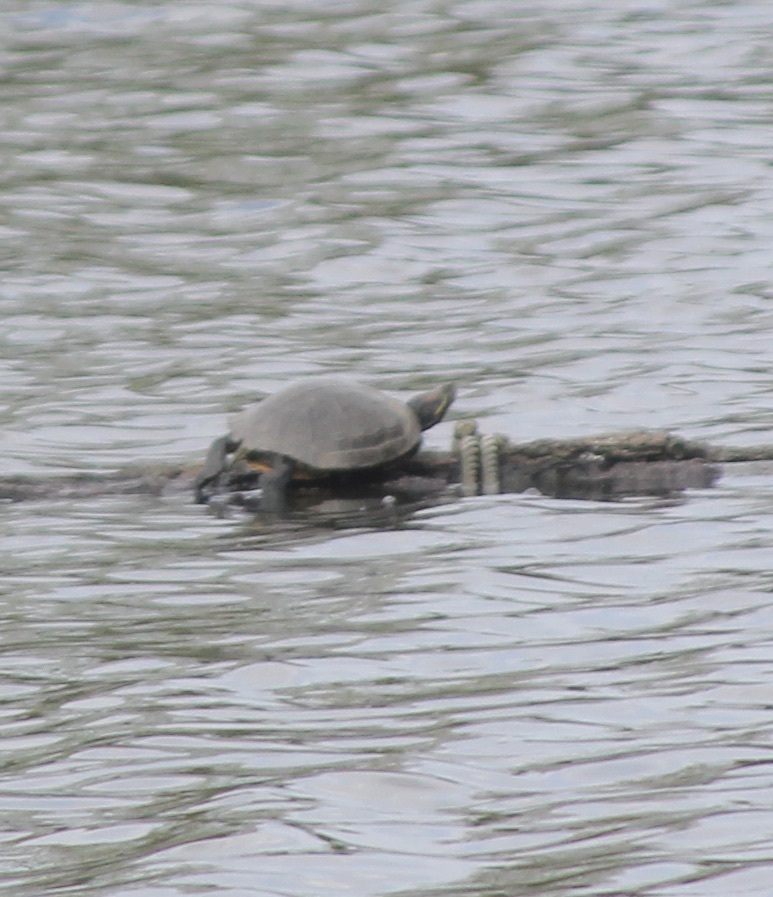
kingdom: Animalia
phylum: Chordata
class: Testudines
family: Emydidae
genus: Trachemys
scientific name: Trachemys scripta
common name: Slider
